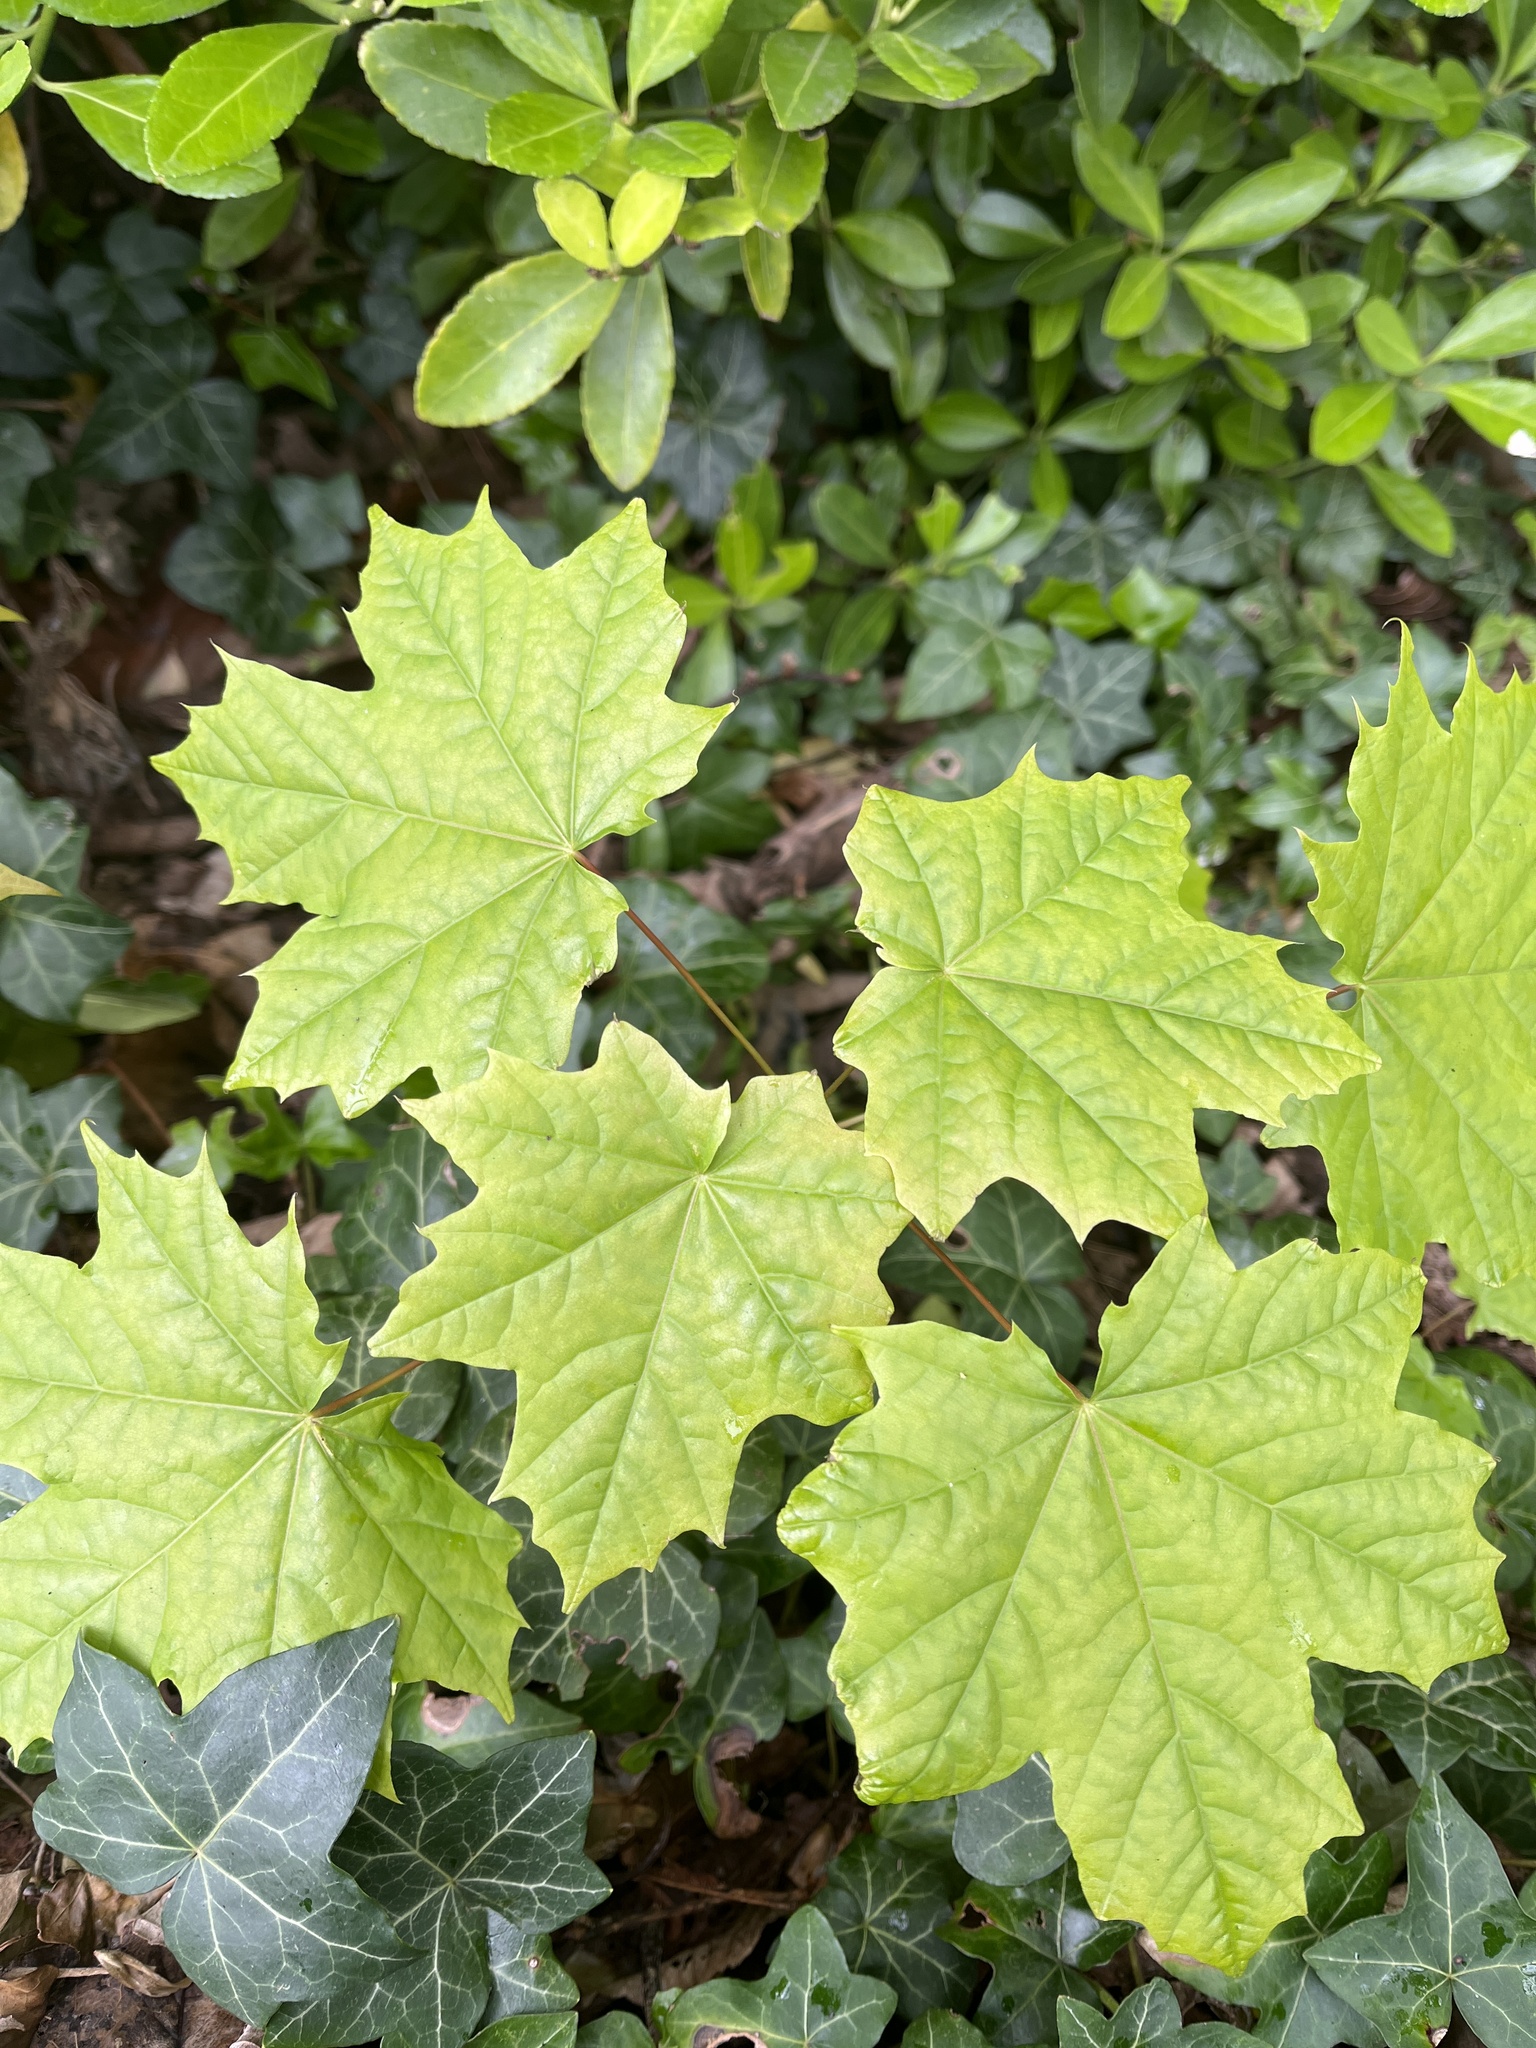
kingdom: Plantae
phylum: Tracheophyta
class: Magnoliopsida
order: Sapindales
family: Sapindaceae
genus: Acer
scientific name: Acer platanoides
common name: Norway maple
